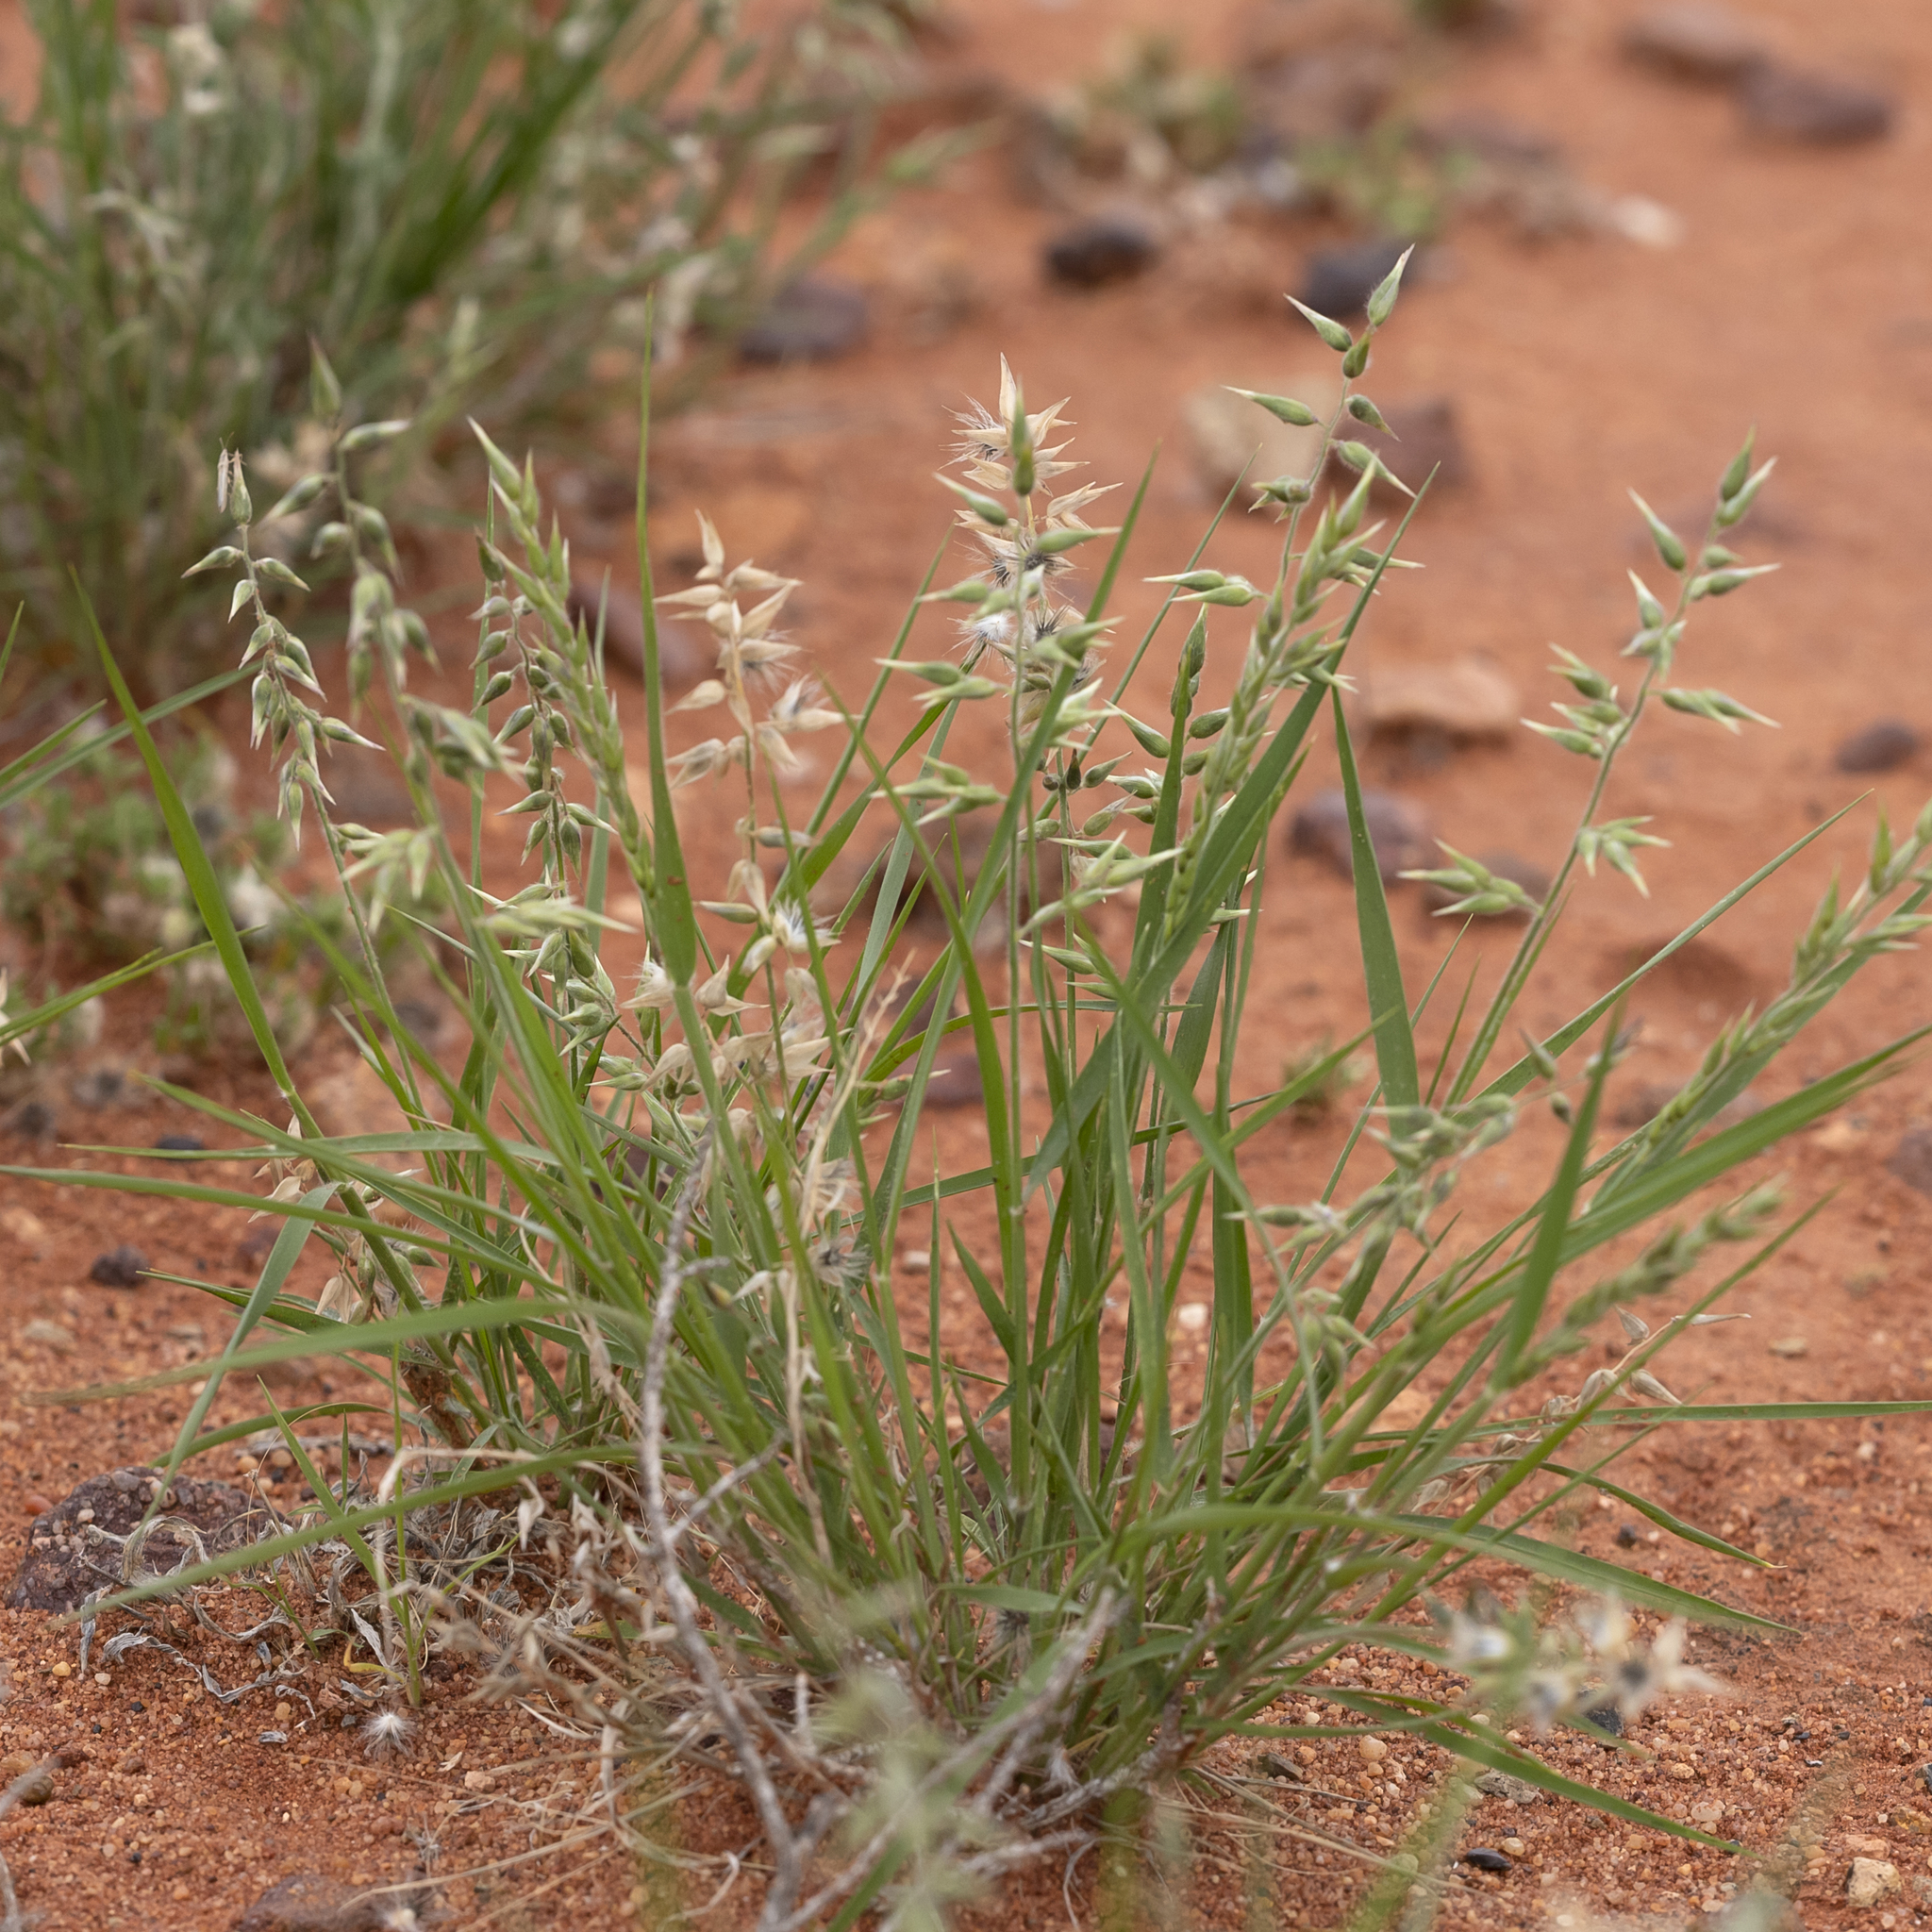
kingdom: Plantae
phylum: Tracheophyta
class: Liliopsida
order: Poales
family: Poaceae
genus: Enneapogon
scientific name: Enneapogon avenaceus
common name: Hairy oat grass
